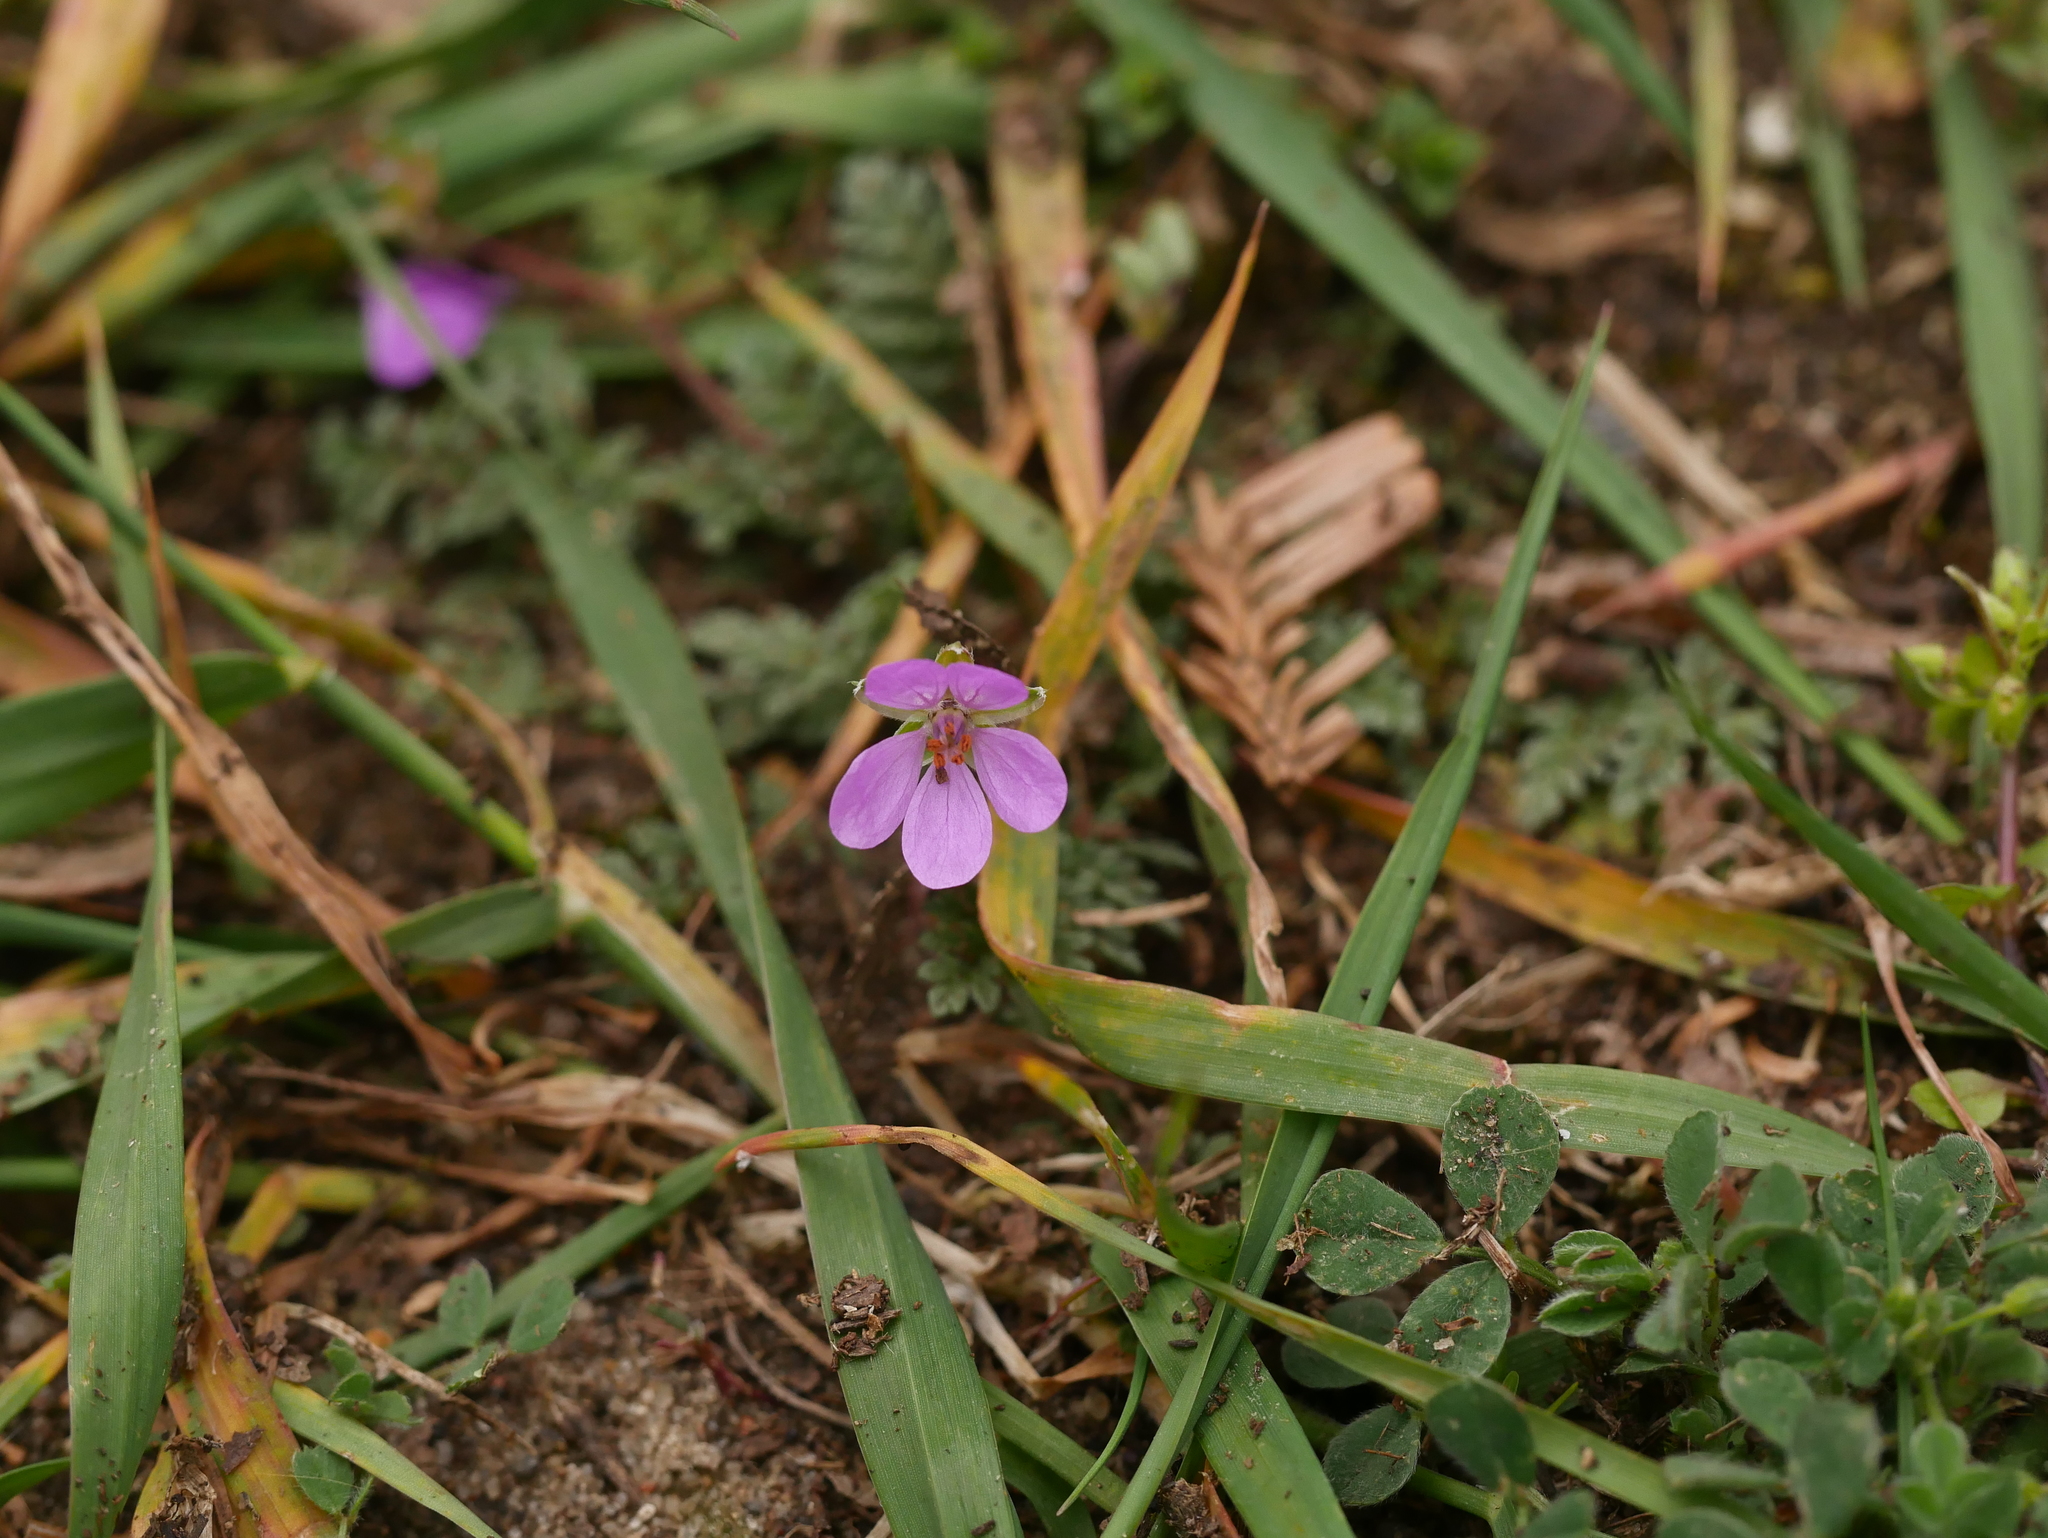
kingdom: Plantae
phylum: Tracheophyta
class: Magnoliopsida
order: Geraniales
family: Geraniaceae
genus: Erodium
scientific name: Erodium cicutarium
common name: Common stork's-bill
